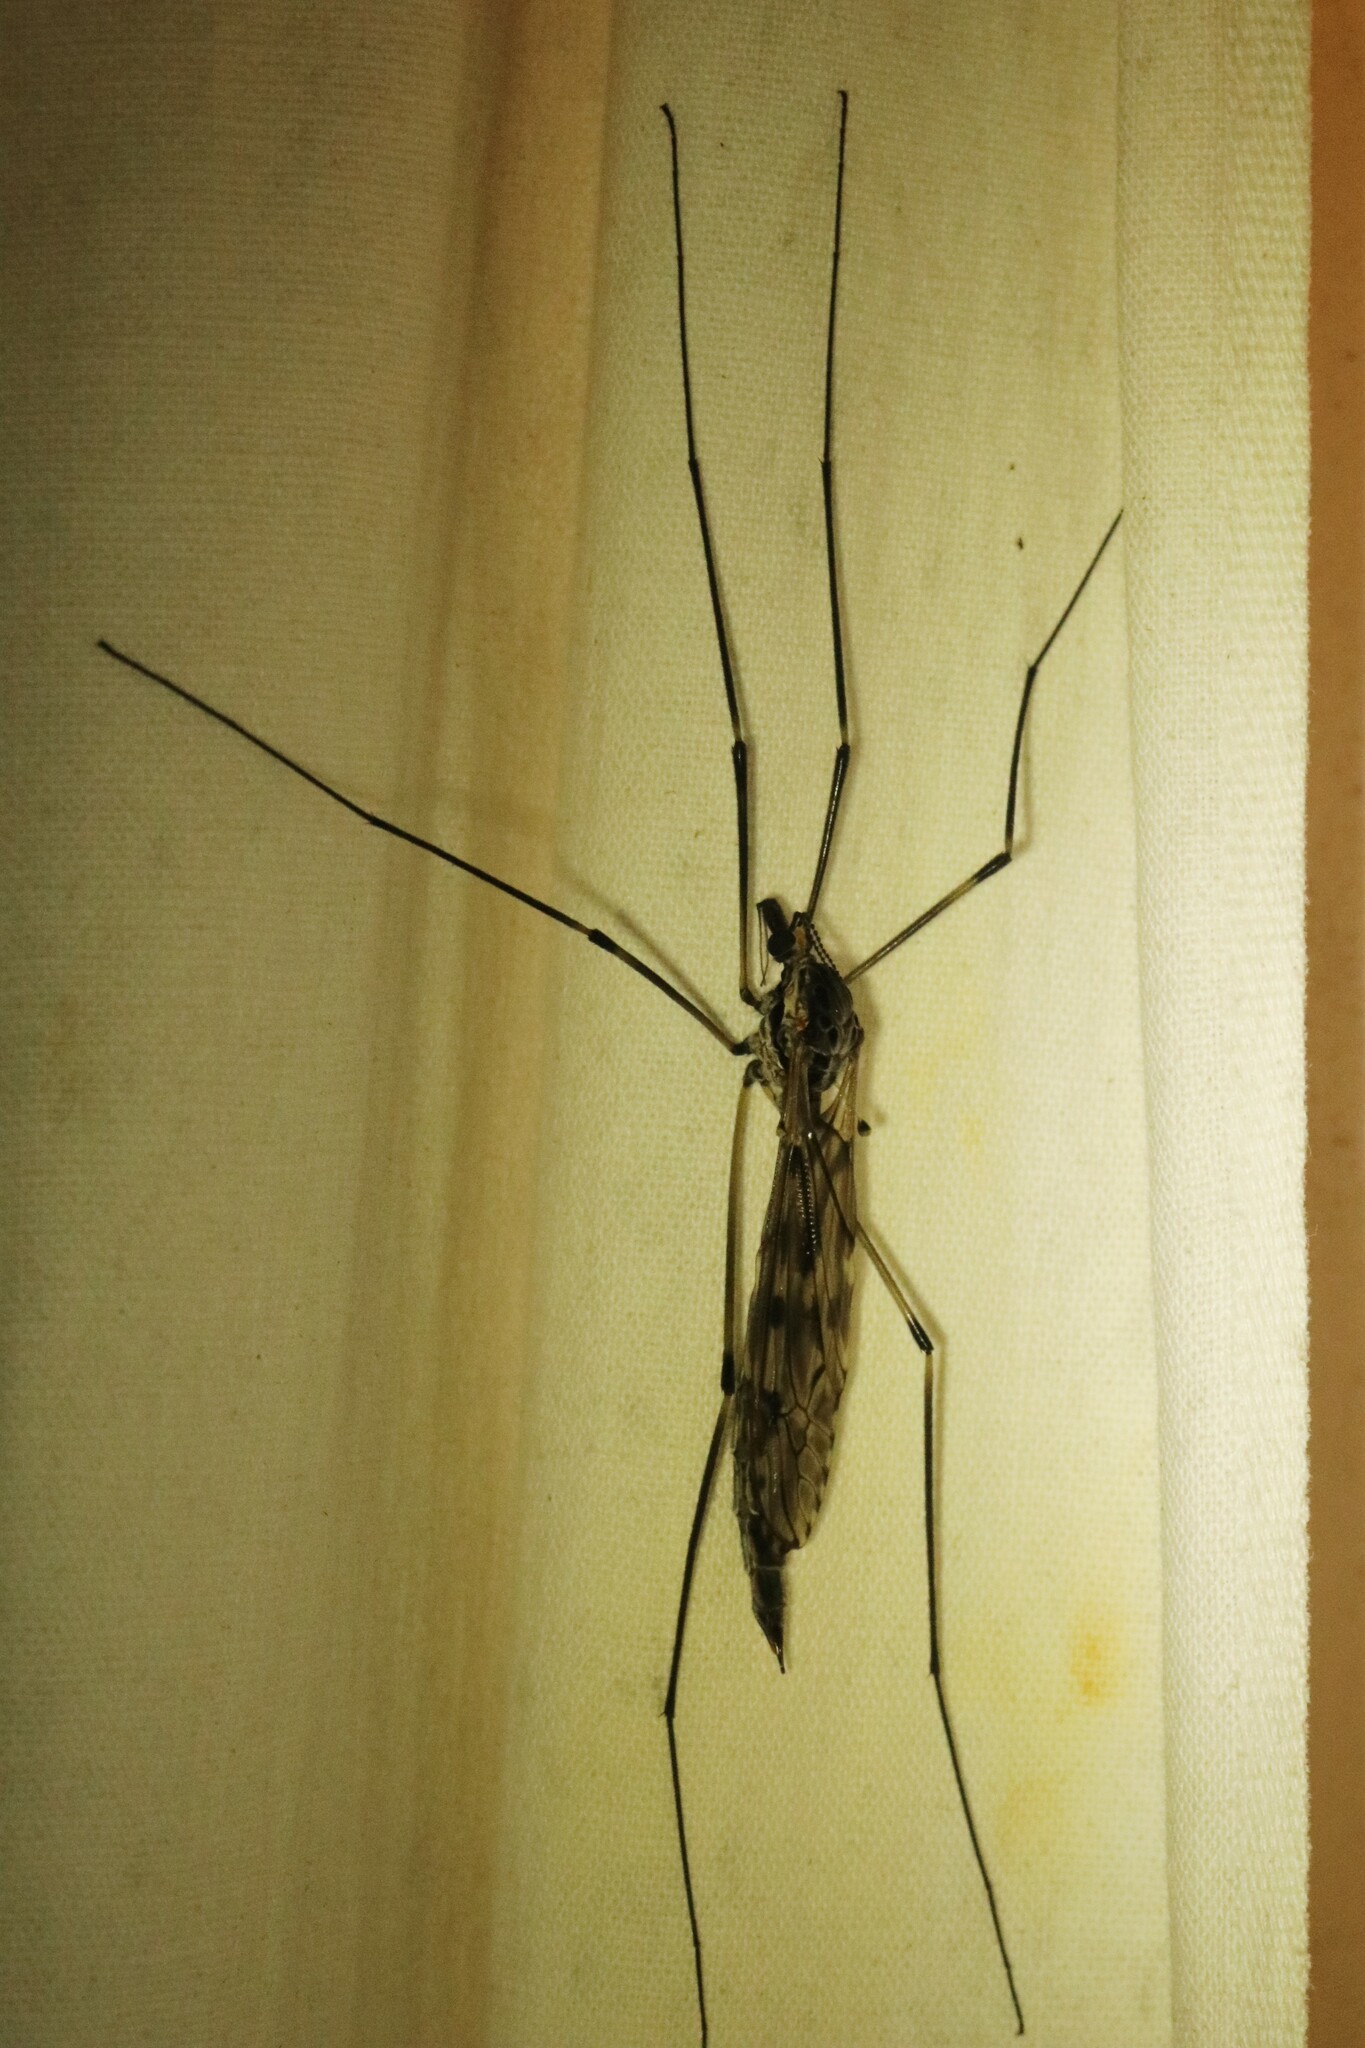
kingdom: Animalia
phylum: Arthropoda
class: Insecta
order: Diptera
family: Tipulidae
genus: Tipula
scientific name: Tipula abdominalis
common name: Giant crane fly
